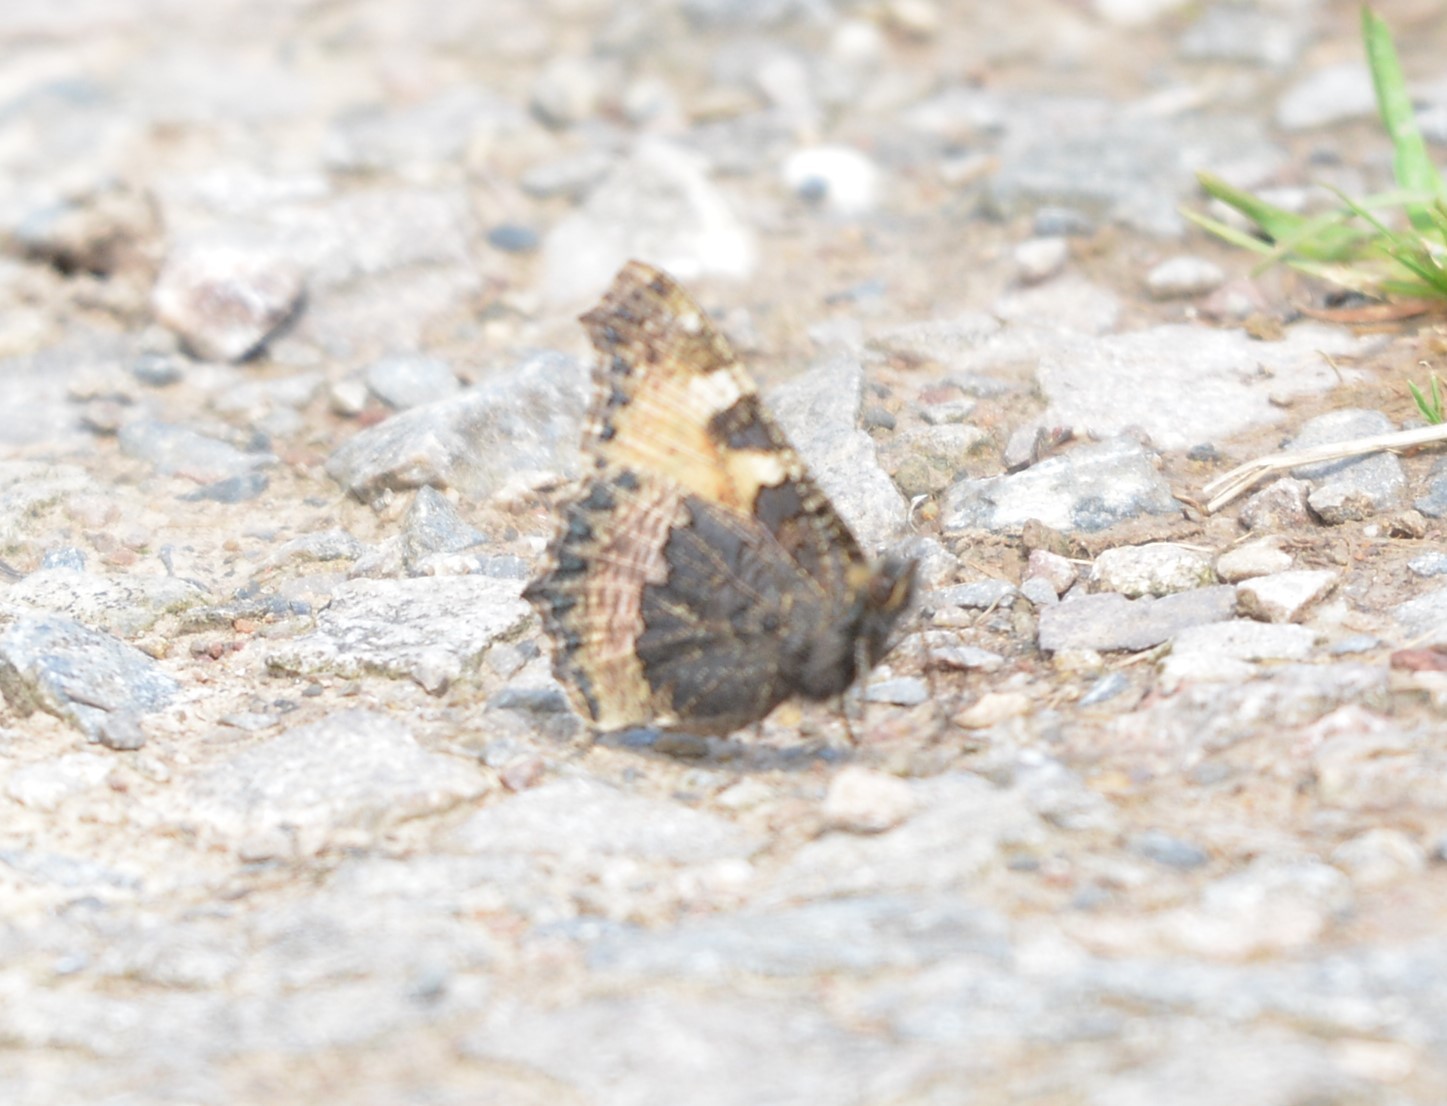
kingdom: Animalia
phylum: Arthropoda
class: Insecta
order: Lepidoptera
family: Nymphalidae
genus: Aglais
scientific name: Aglais urticae
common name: Small tortoiseshell
